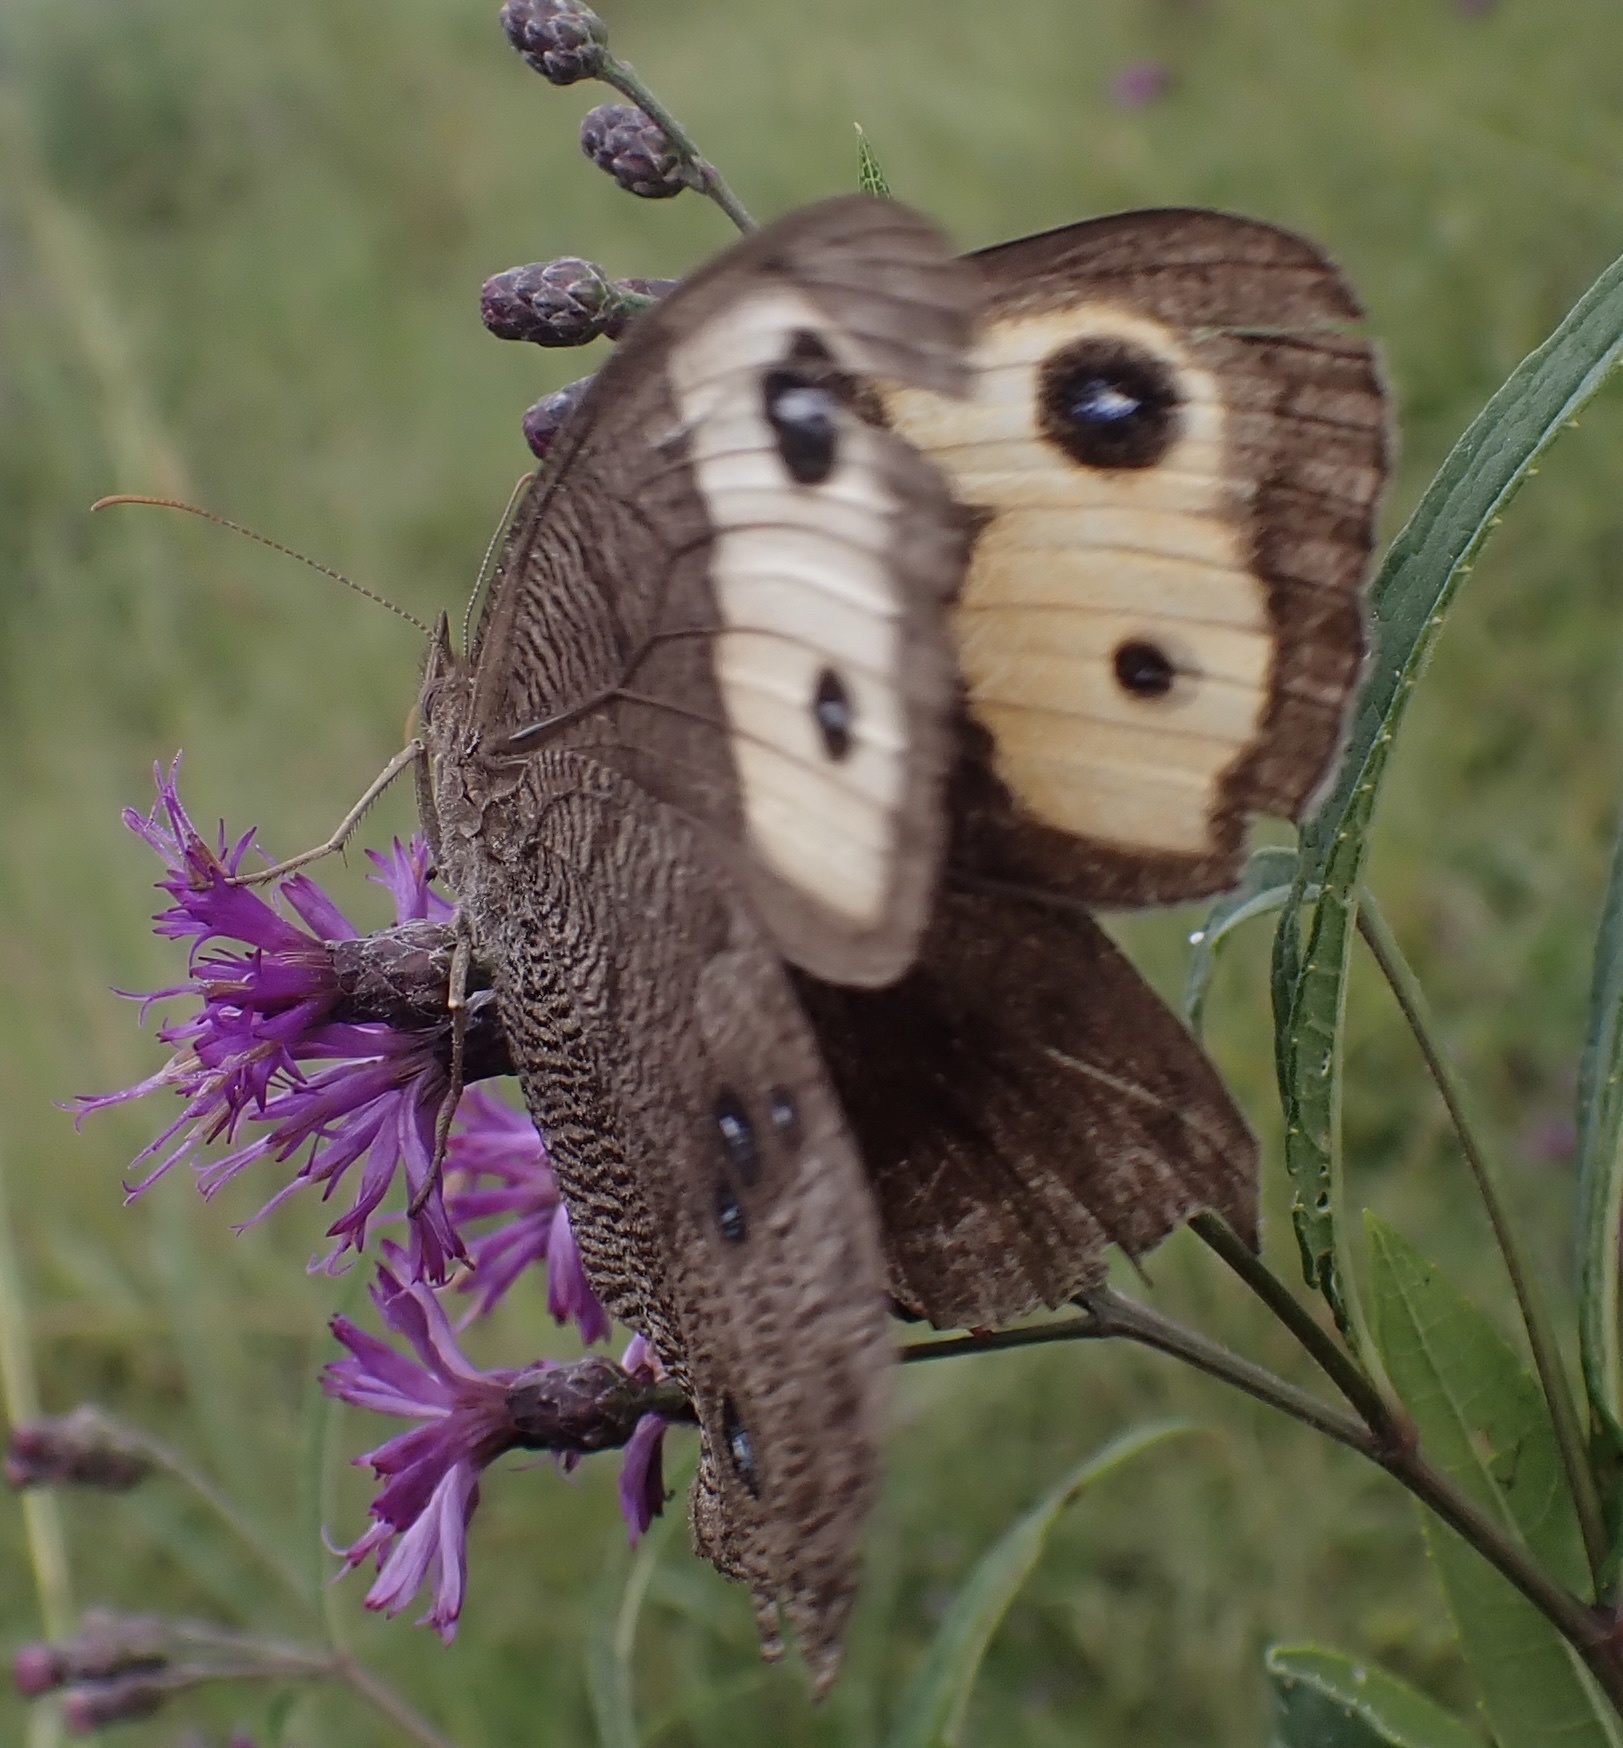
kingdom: Animalia
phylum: Arthropoda
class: Insecta
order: Lepidoptera
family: Nymphalidae
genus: Cercyonis
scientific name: Cercyonis pegala
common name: Common wood-nymph
